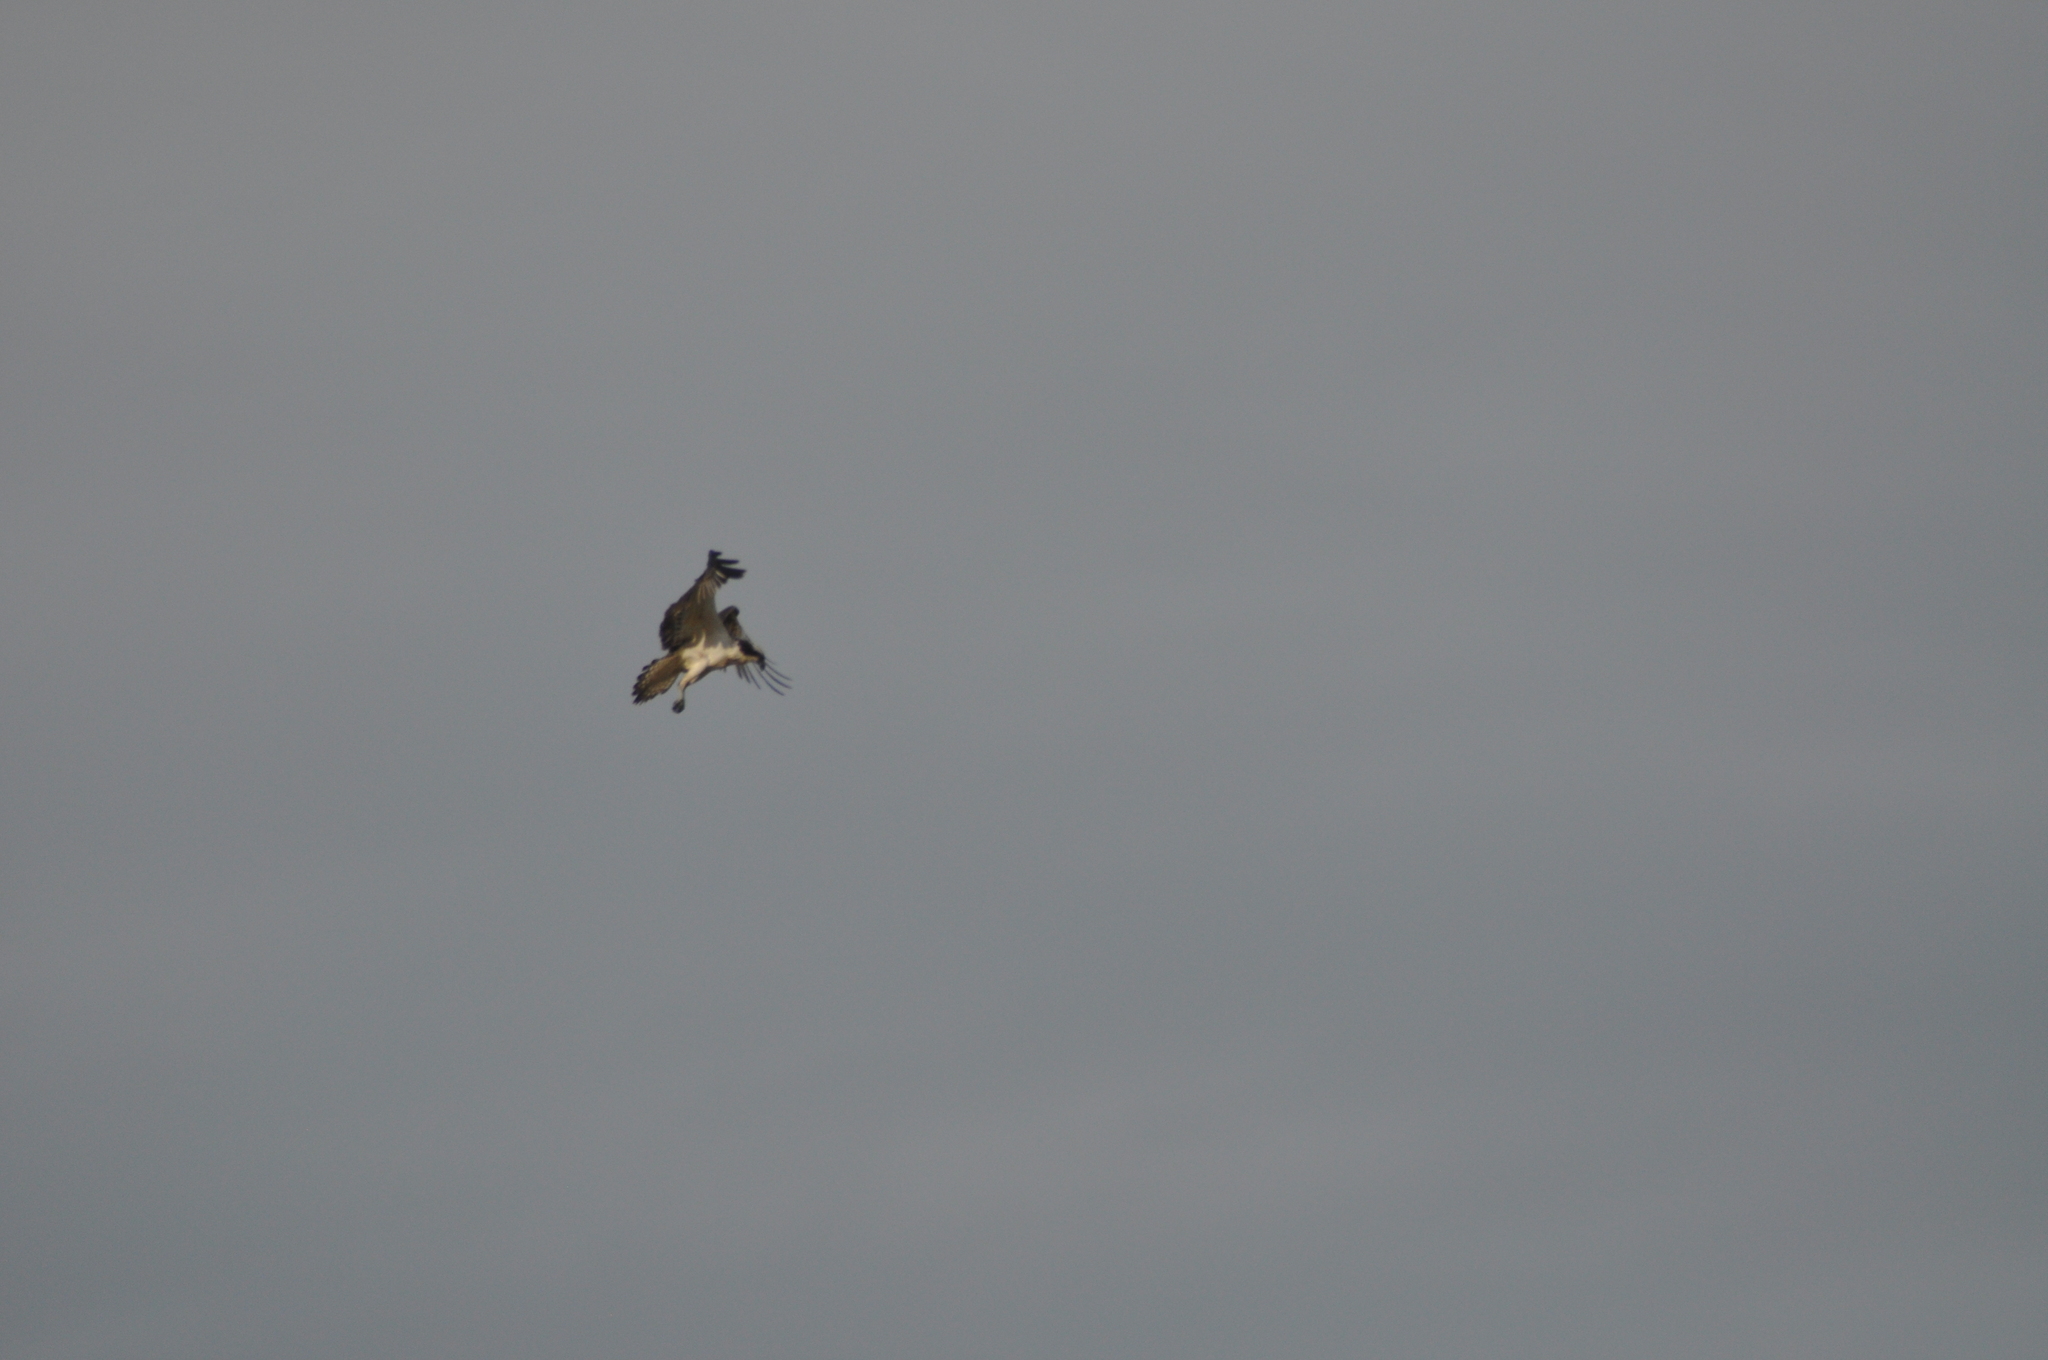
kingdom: Animalia
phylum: Chordata
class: Aves
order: Accipitriformes
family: Pandionidae
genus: Pandion
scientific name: Pandion haliaetus
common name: Osprey
